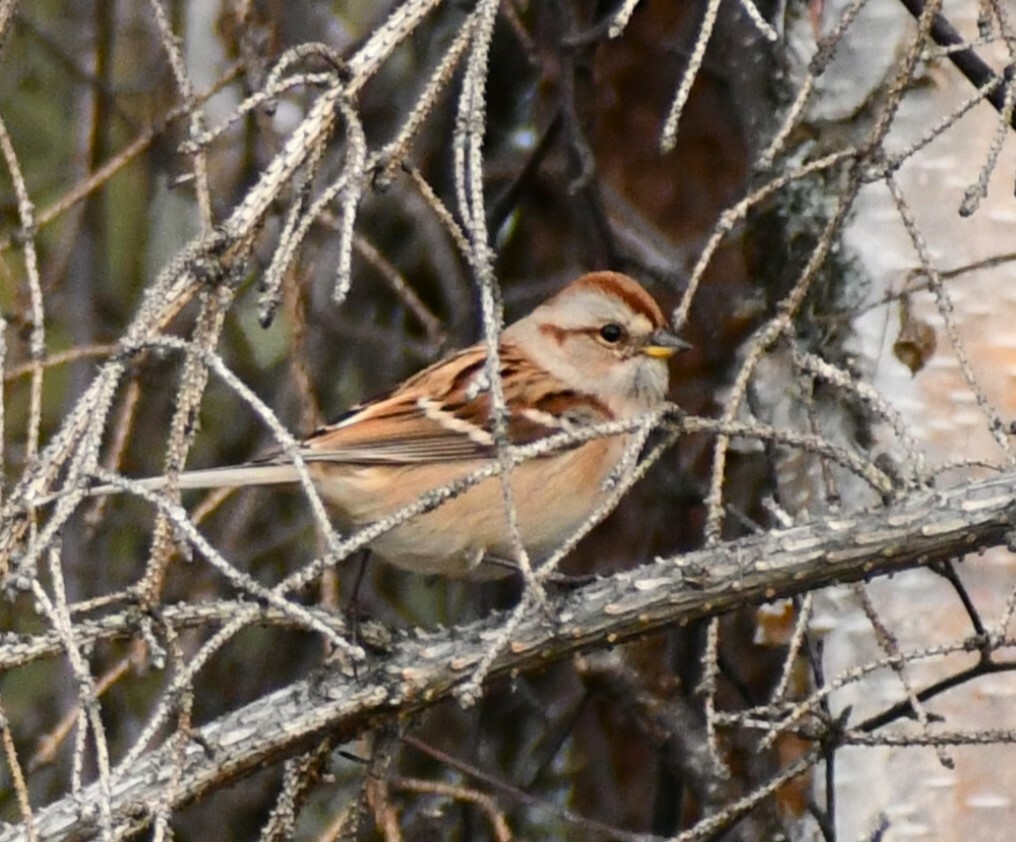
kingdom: Animalia
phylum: Chordata
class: Aves
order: Passeriformes
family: Passerellidae
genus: Spizelloides
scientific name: Spizelloides arborea
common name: American tree sparrow
